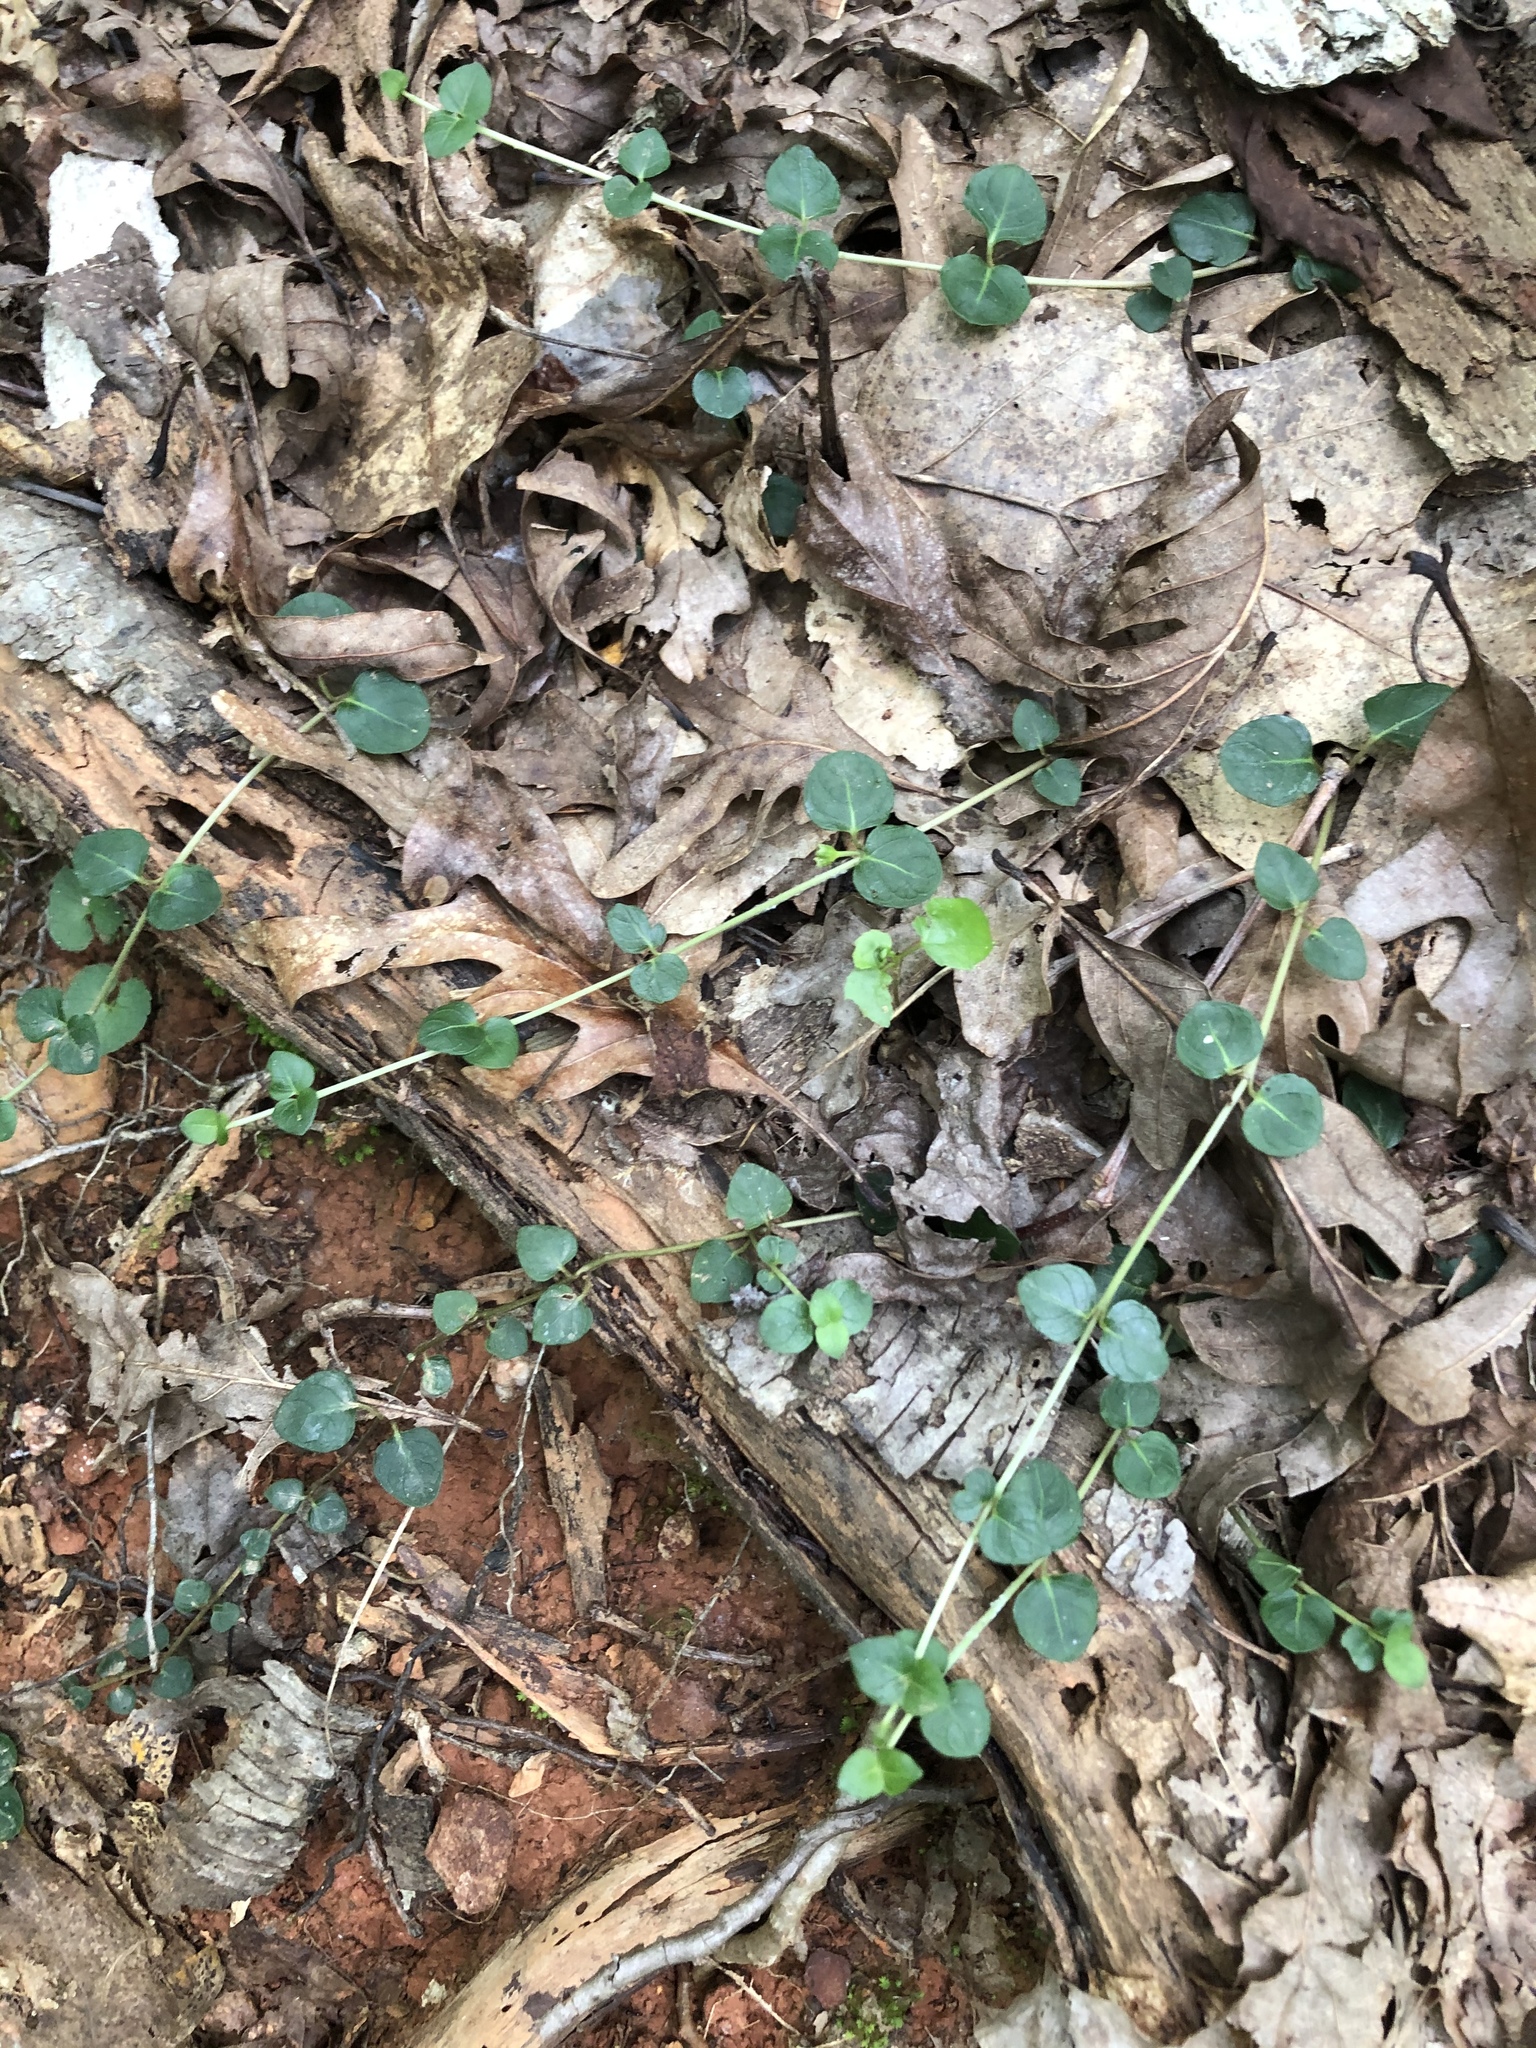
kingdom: Plantae
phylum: Tracheophyta
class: Magnoliopsida
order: Gentianales
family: Rubiaceae
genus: Mitchella
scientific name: Mitchella repens
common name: Partridge-berry
